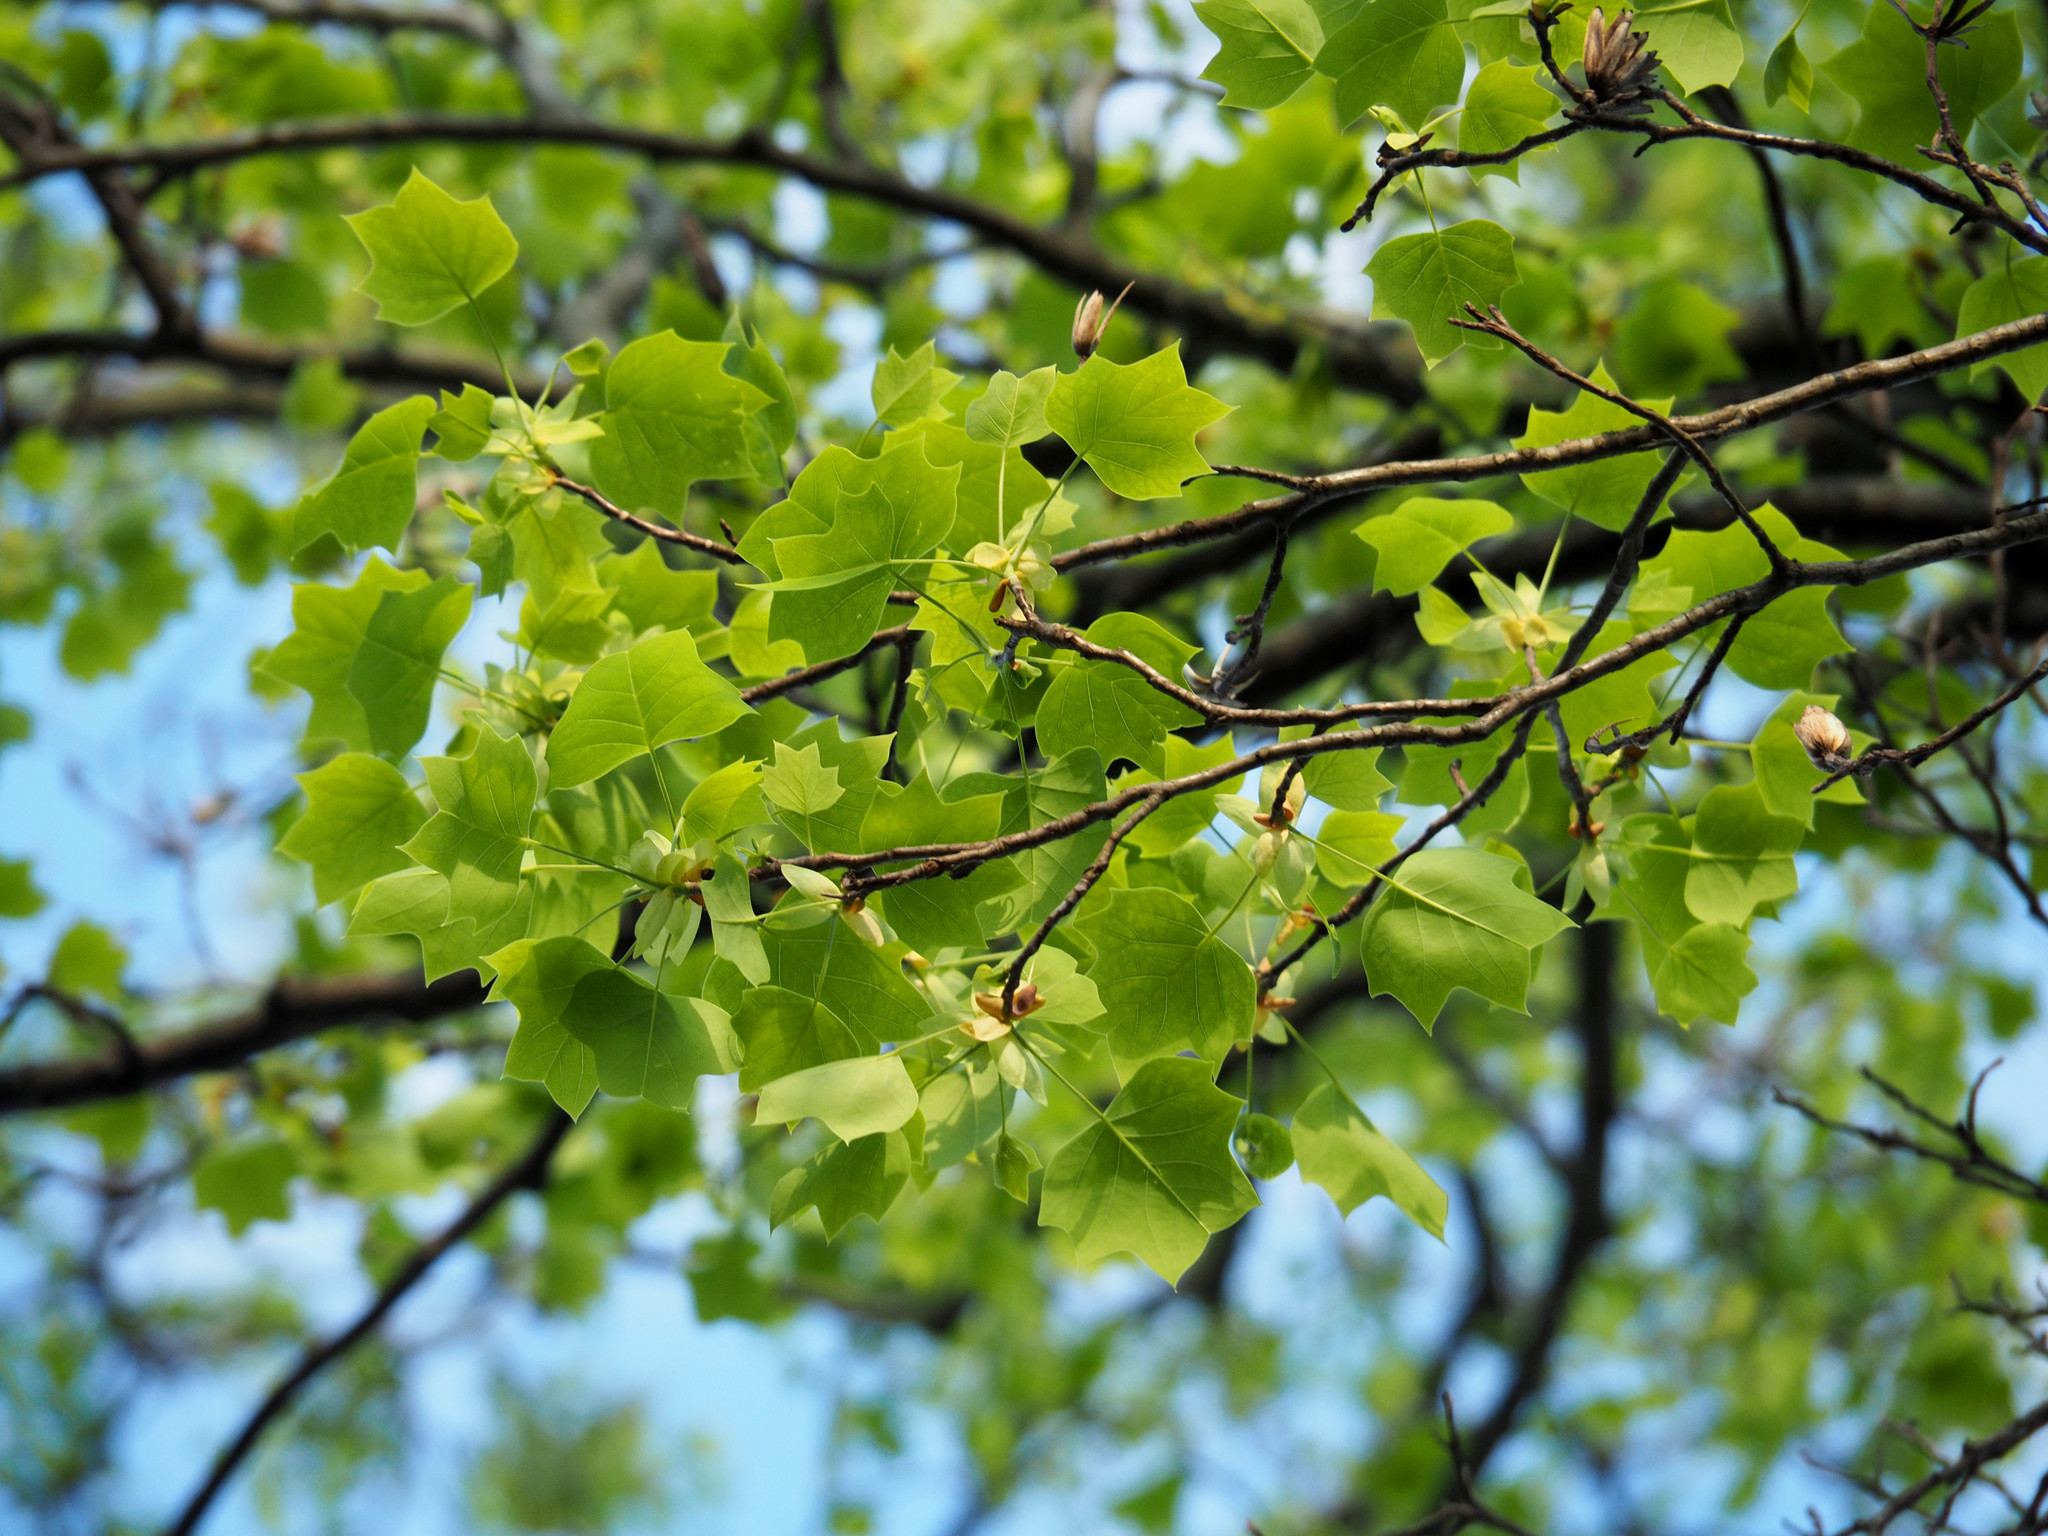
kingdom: Plantae
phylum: Tracheophyta
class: Magnoliopsida
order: Magnoliales
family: Magnoliaceae
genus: Liriodendron
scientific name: Liriodendron tulipifera
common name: Tulip tree
